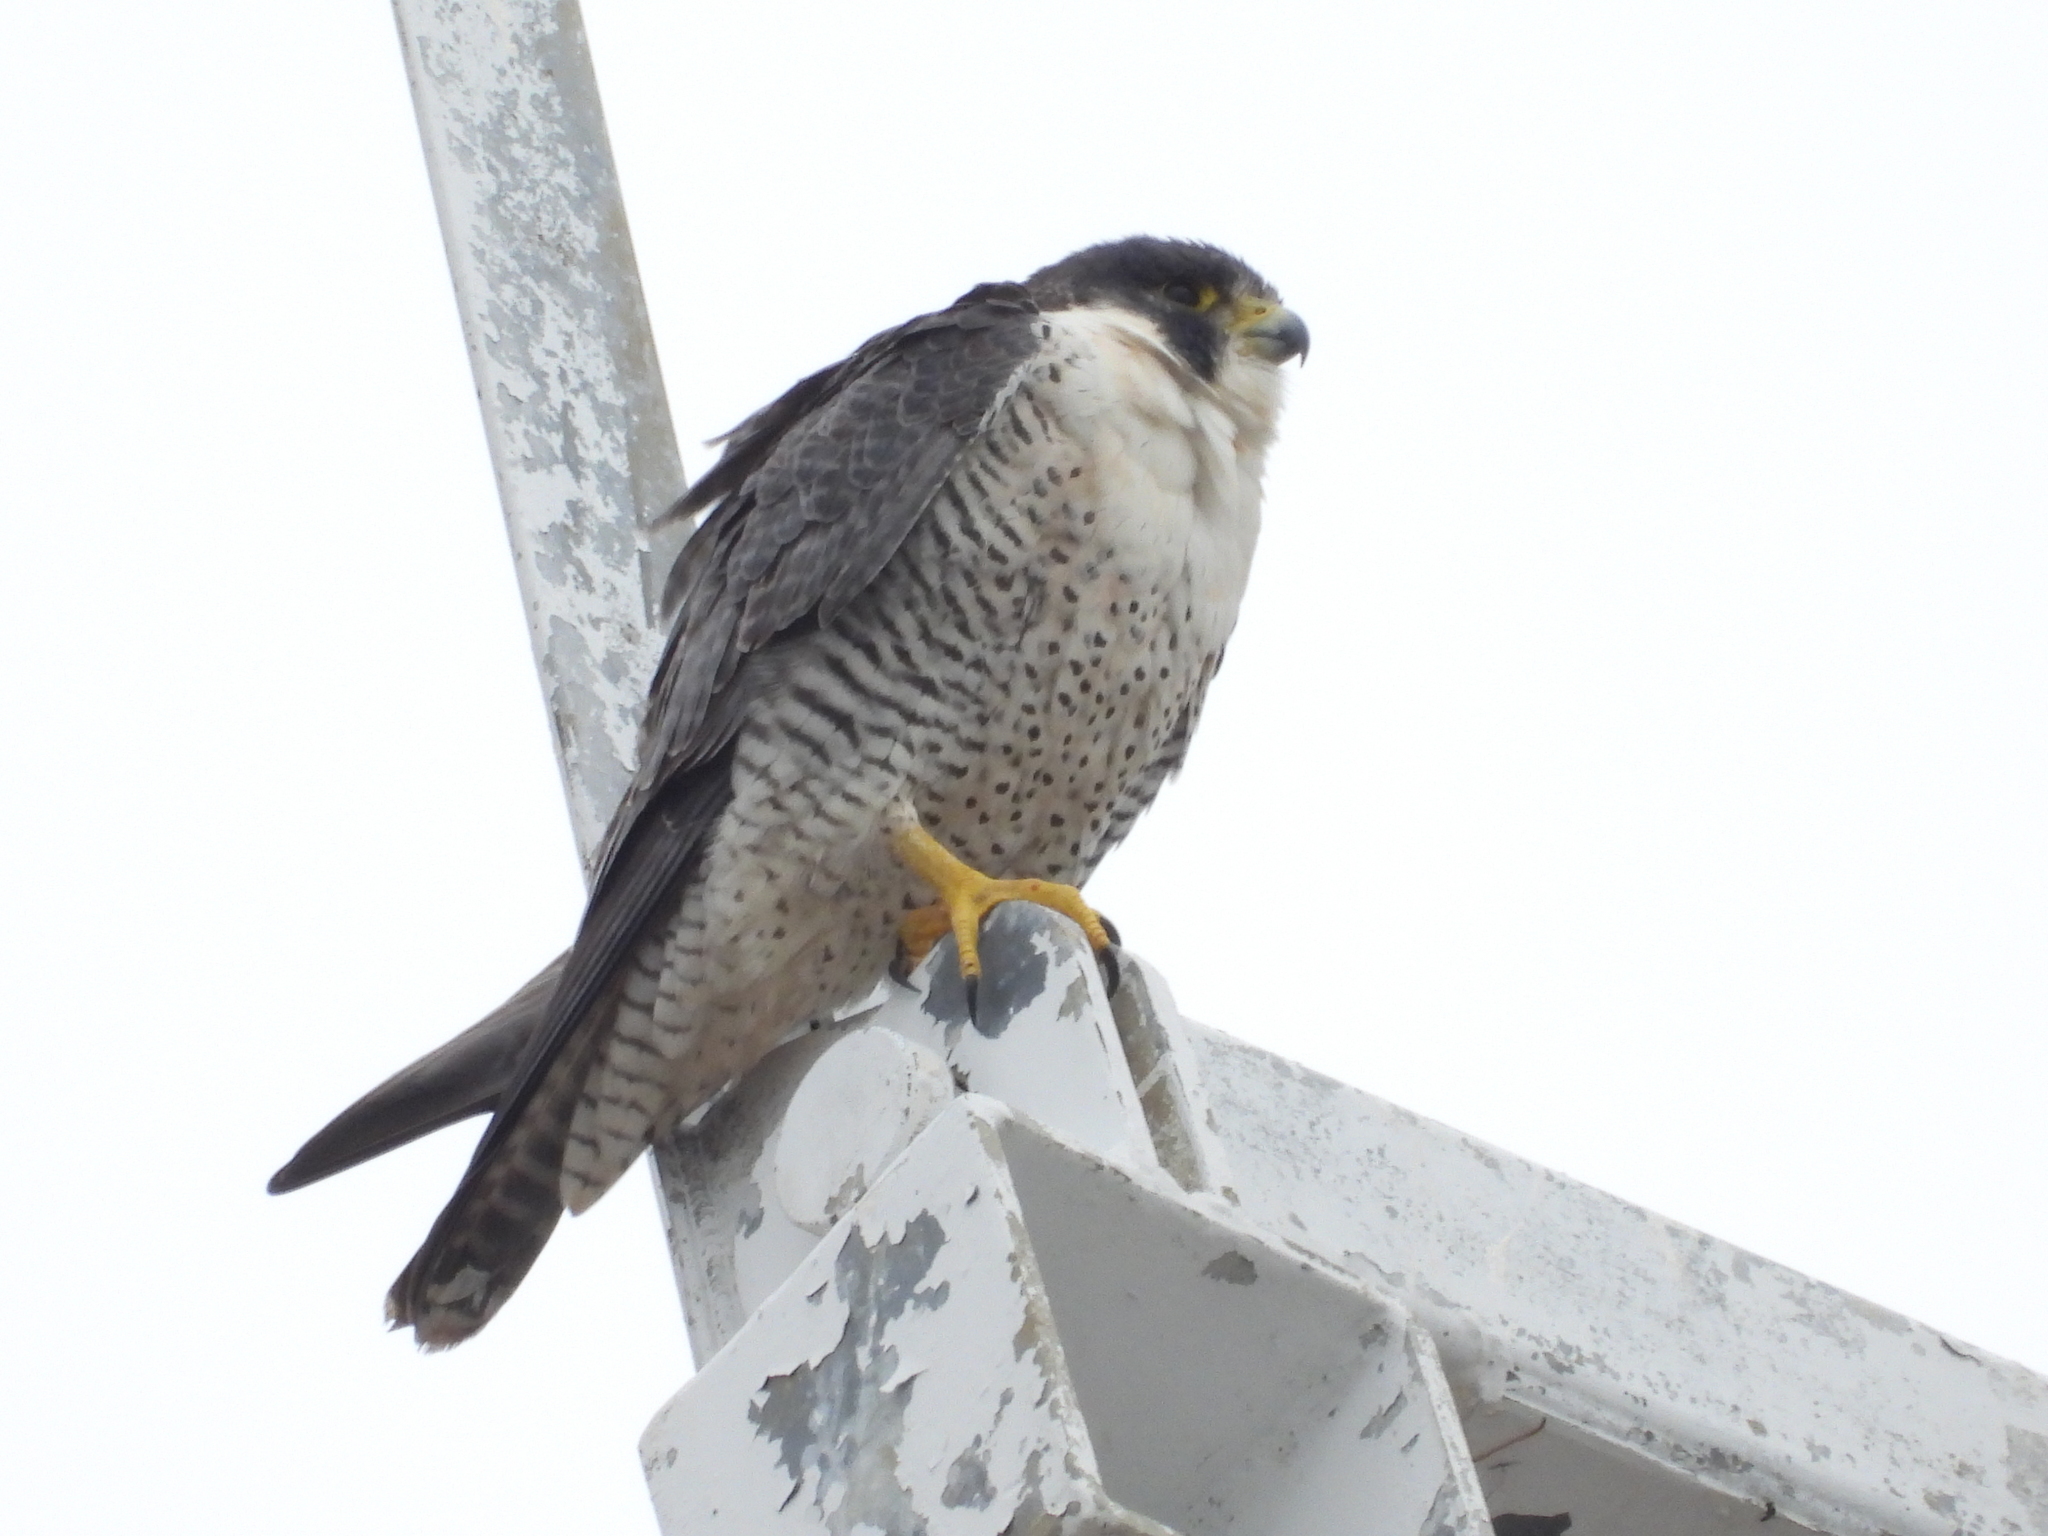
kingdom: Animalia
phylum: Chordata
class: Aves
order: Falconiformes
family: Falconidae
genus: Falco
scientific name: Falco peregrinus
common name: Peregrine falcon
